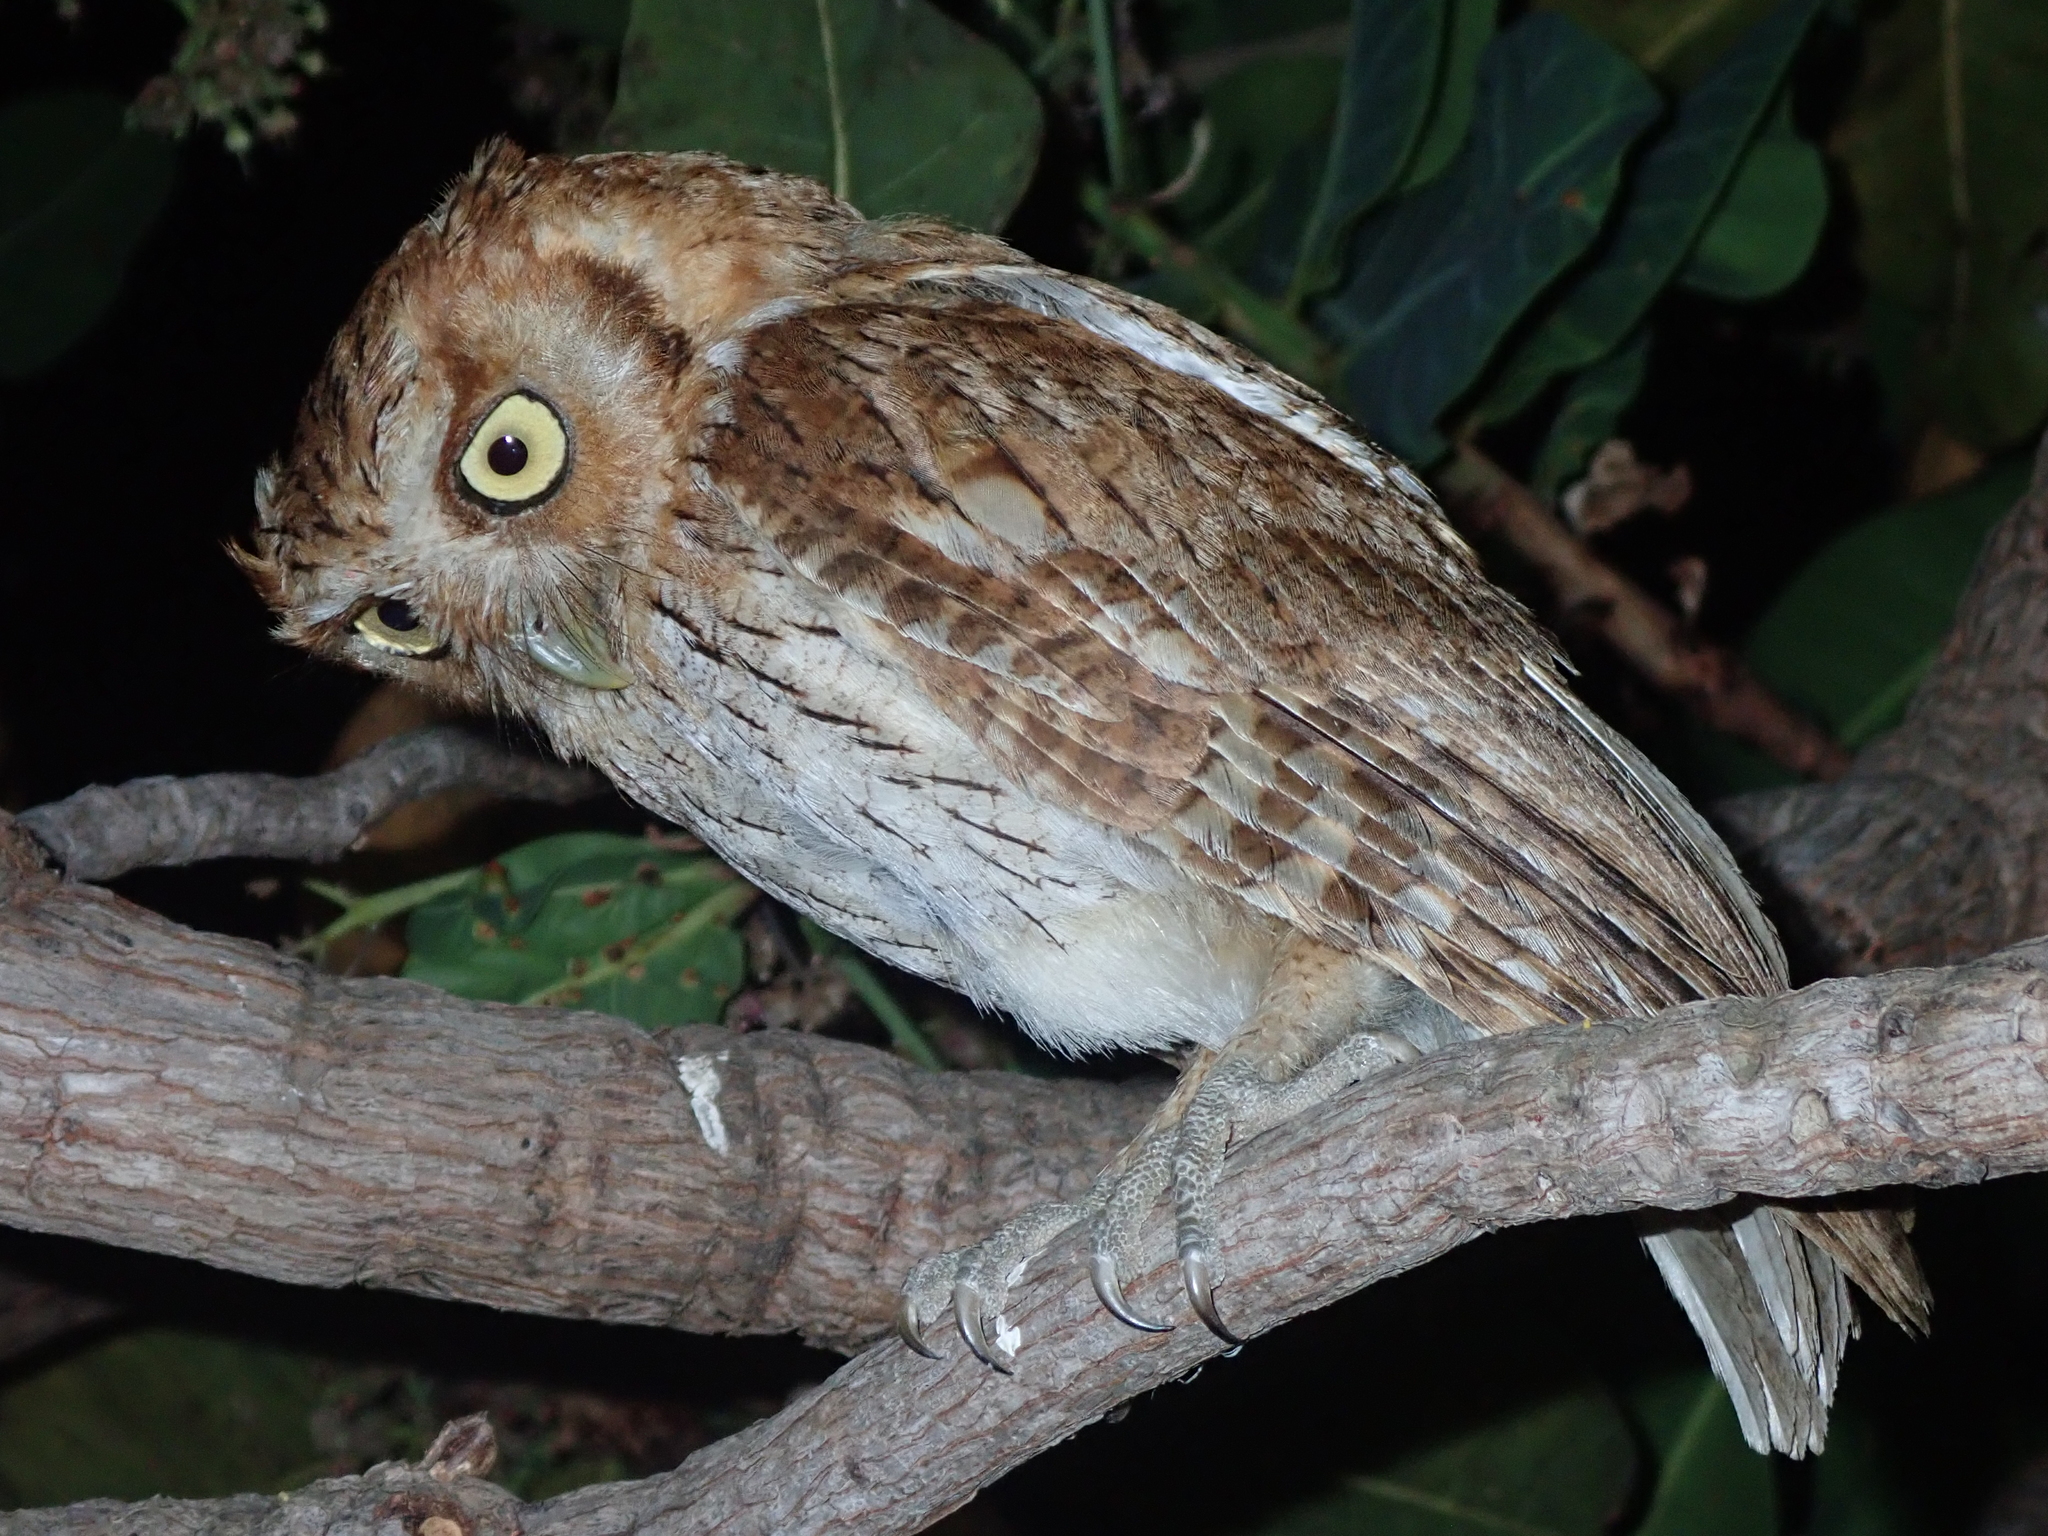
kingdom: Animalia
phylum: Chordata
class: Aves
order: Strigiformes
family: Strigidae
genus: Megascops
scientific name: Megascops choliba
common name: Tropical screech-owl
